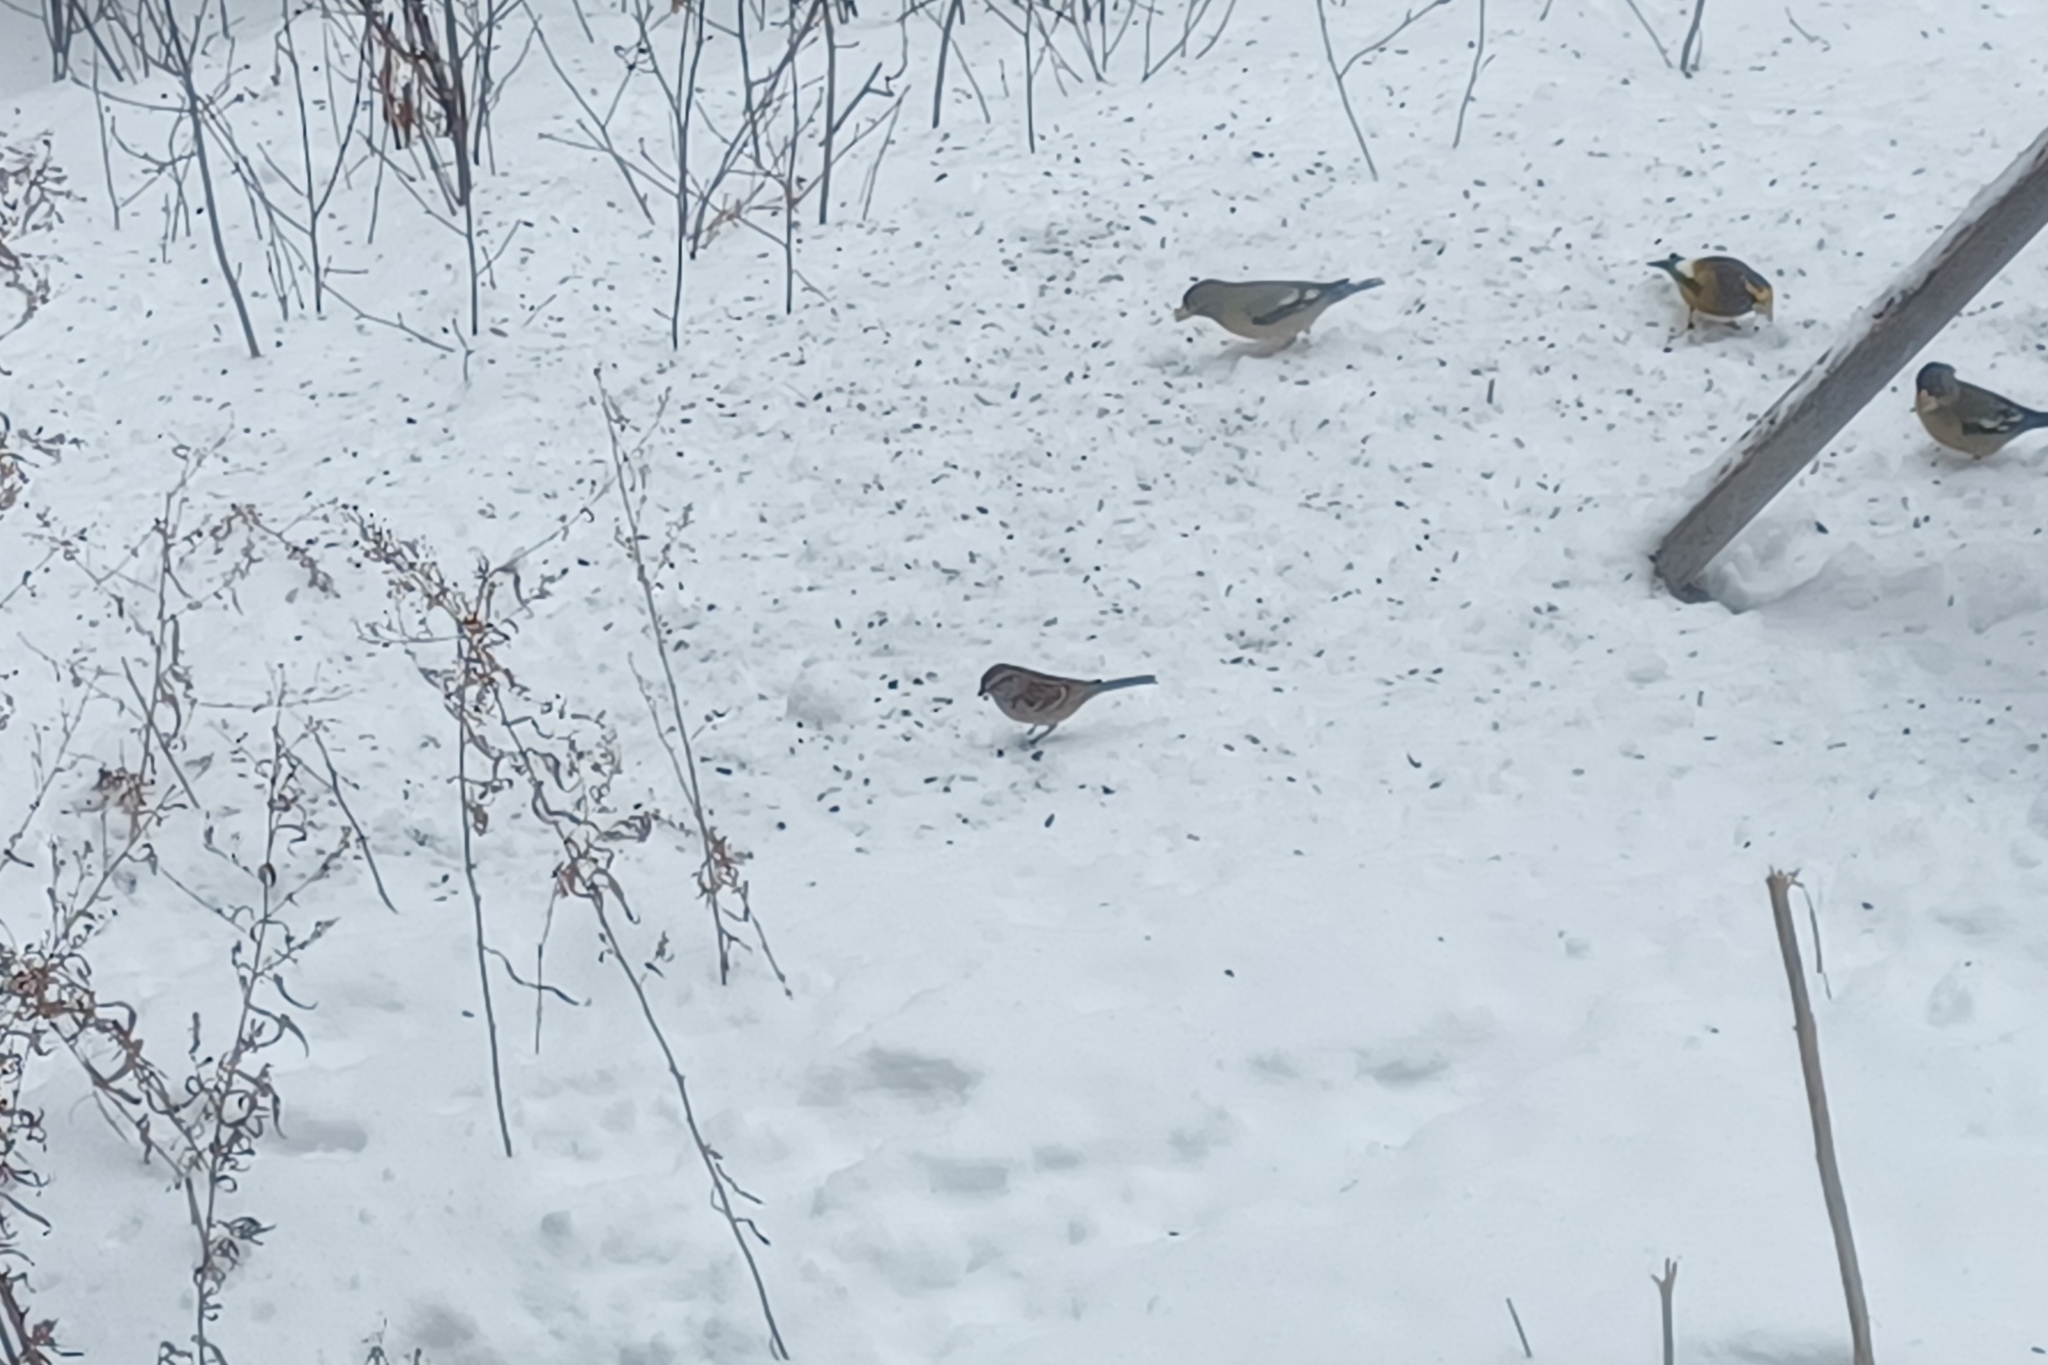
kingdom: Animalia
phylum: Chordata
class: Aves
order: Passeriformes
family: Passerellidae
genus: Spizelloides
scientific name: Spizelloides arborea
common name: American tree sparrow
